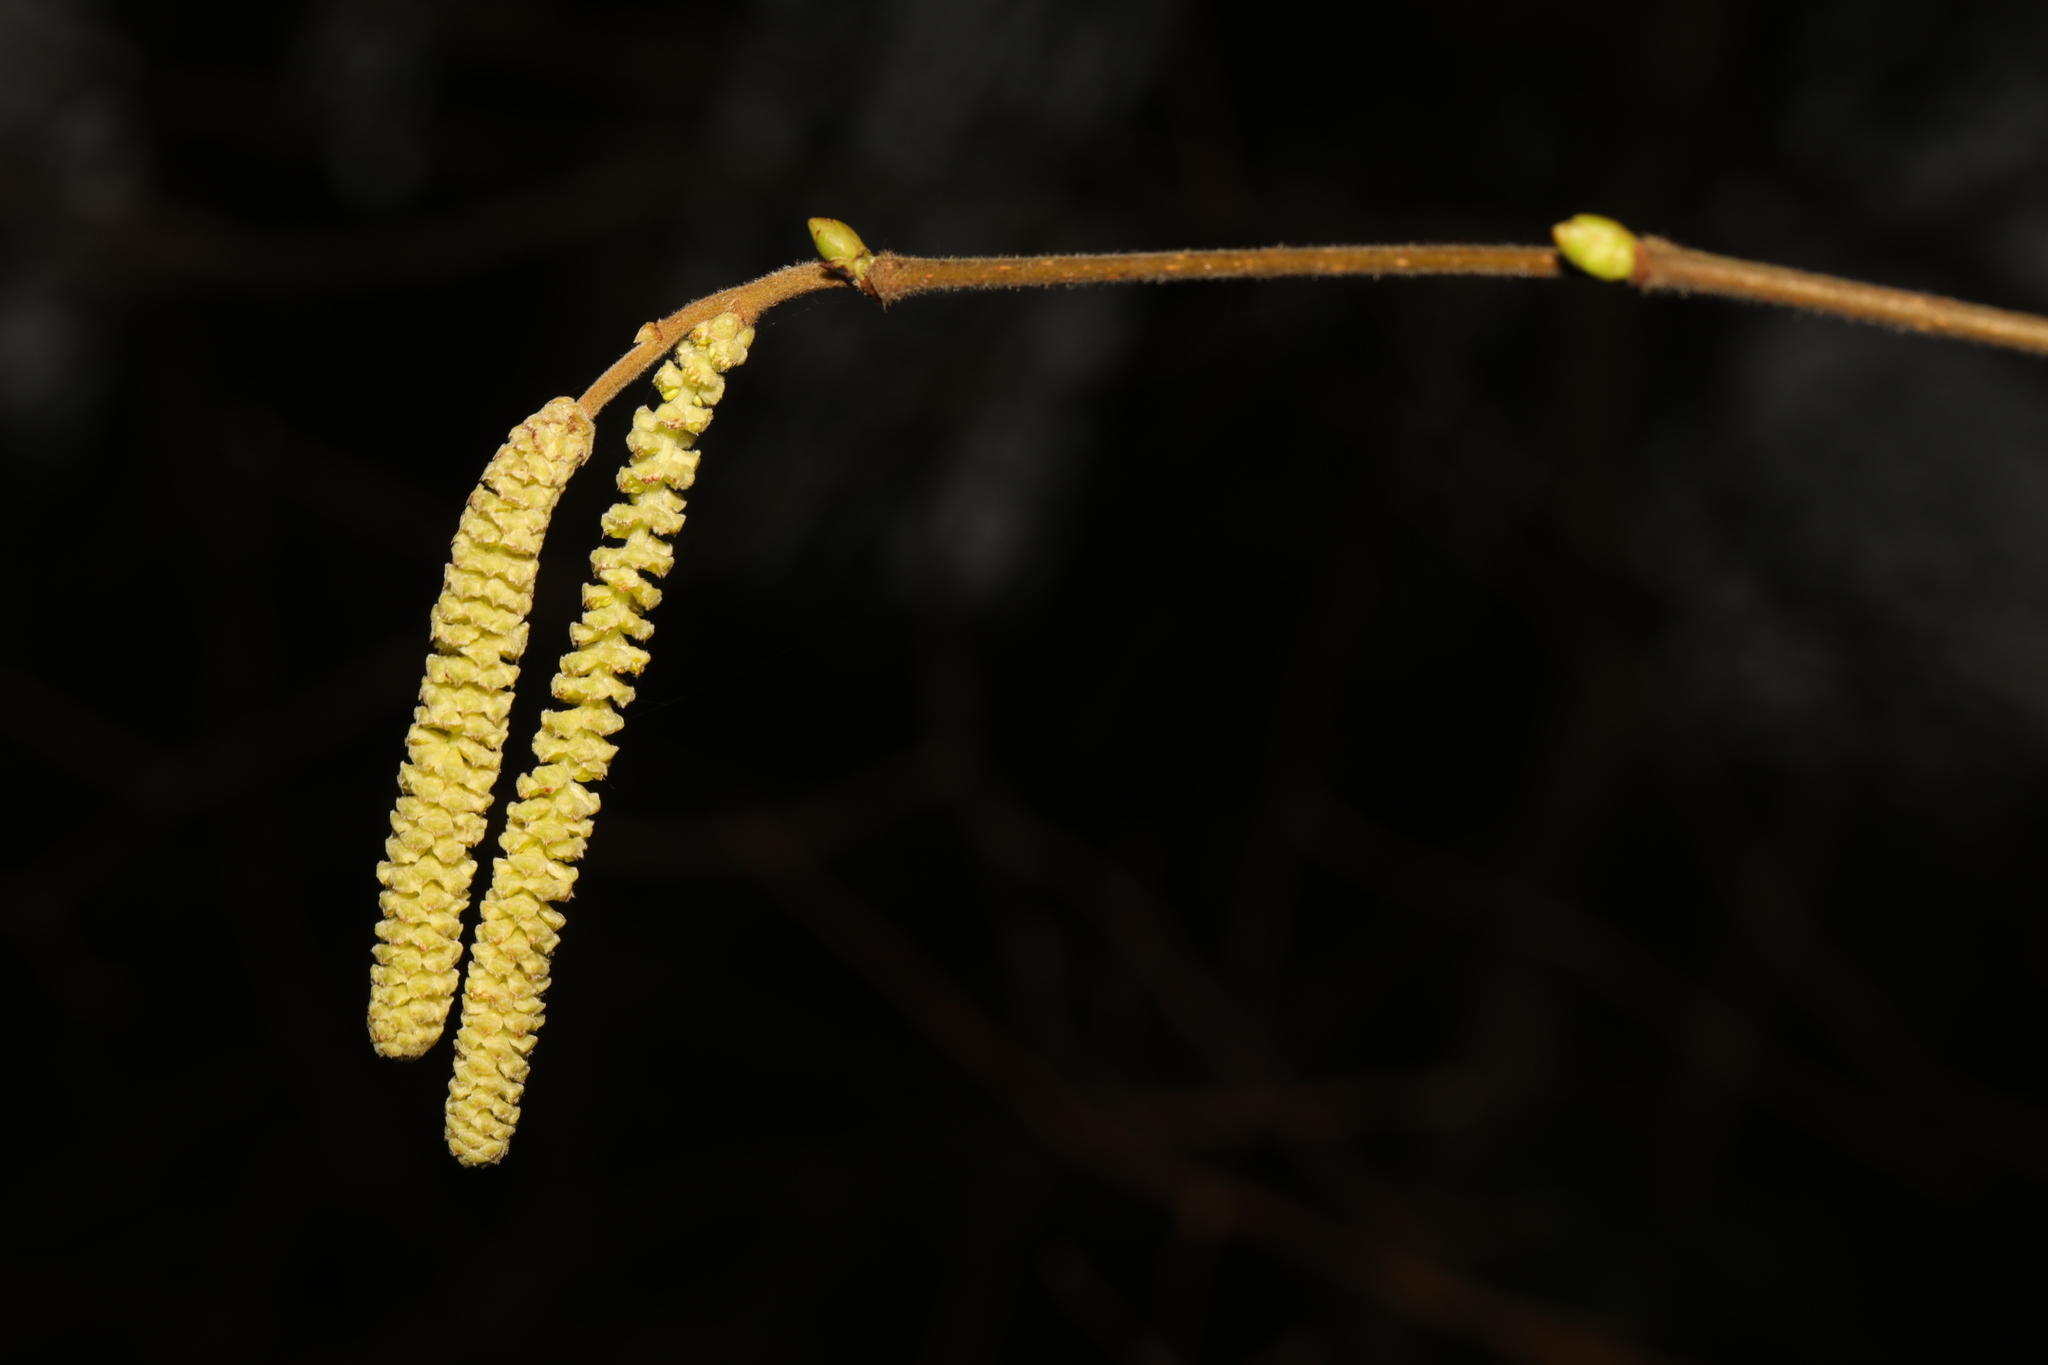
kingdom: Plantae
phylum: Tracheophyta
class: Magnoliopsida
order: Fagales
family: Betulaceae
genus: Corylus
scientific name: Corylus avellana
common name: European hazel
